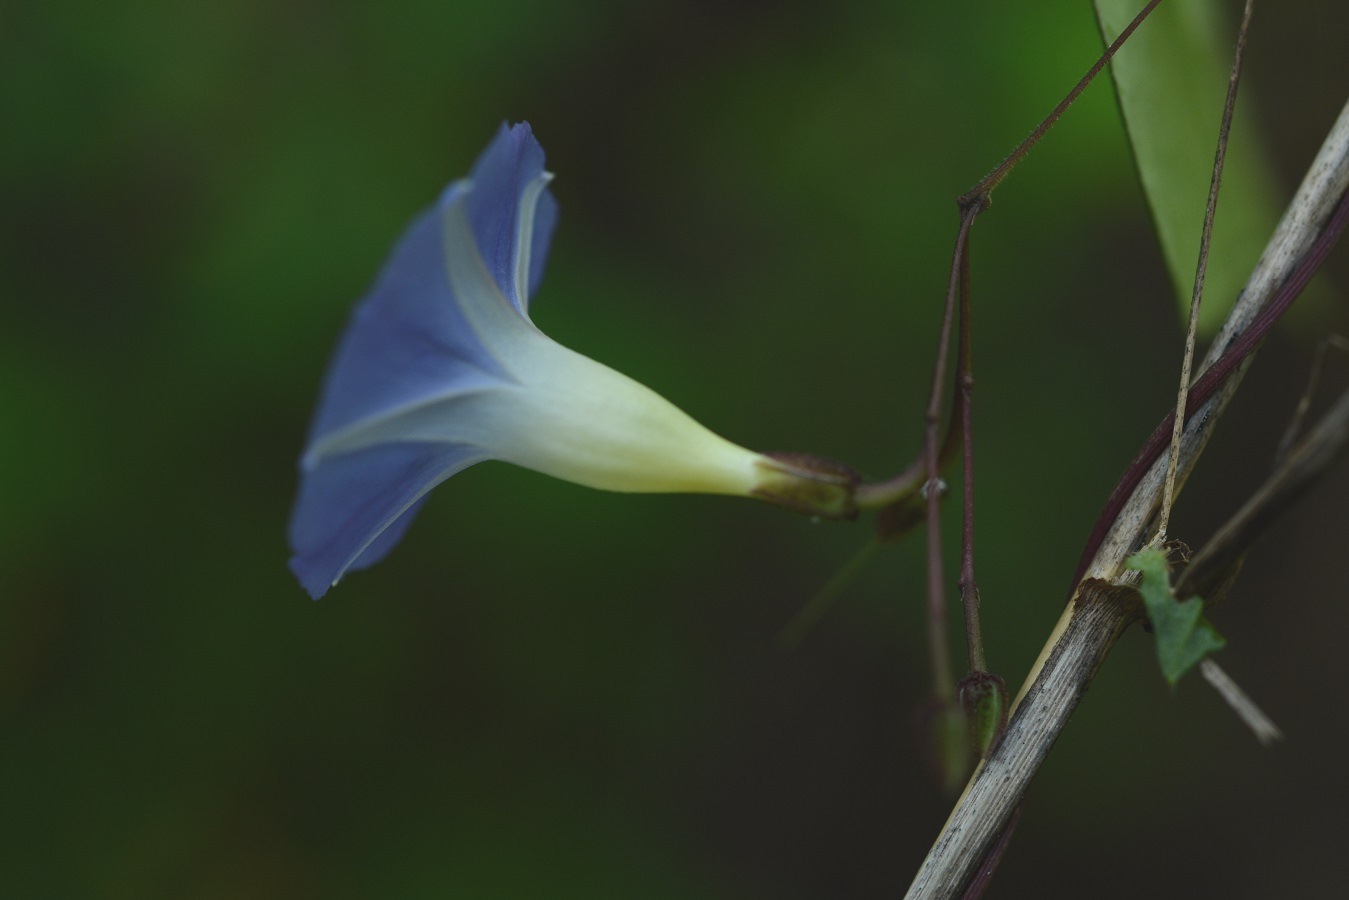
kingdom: Plantae
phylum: Tracheophyta
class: Magnoliopsida
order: Solanales
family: Convolvulaceae
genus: Ipomoea
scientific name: Ipomoea aristolochiifolia
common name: Aristolochia-leaved morning-glory
